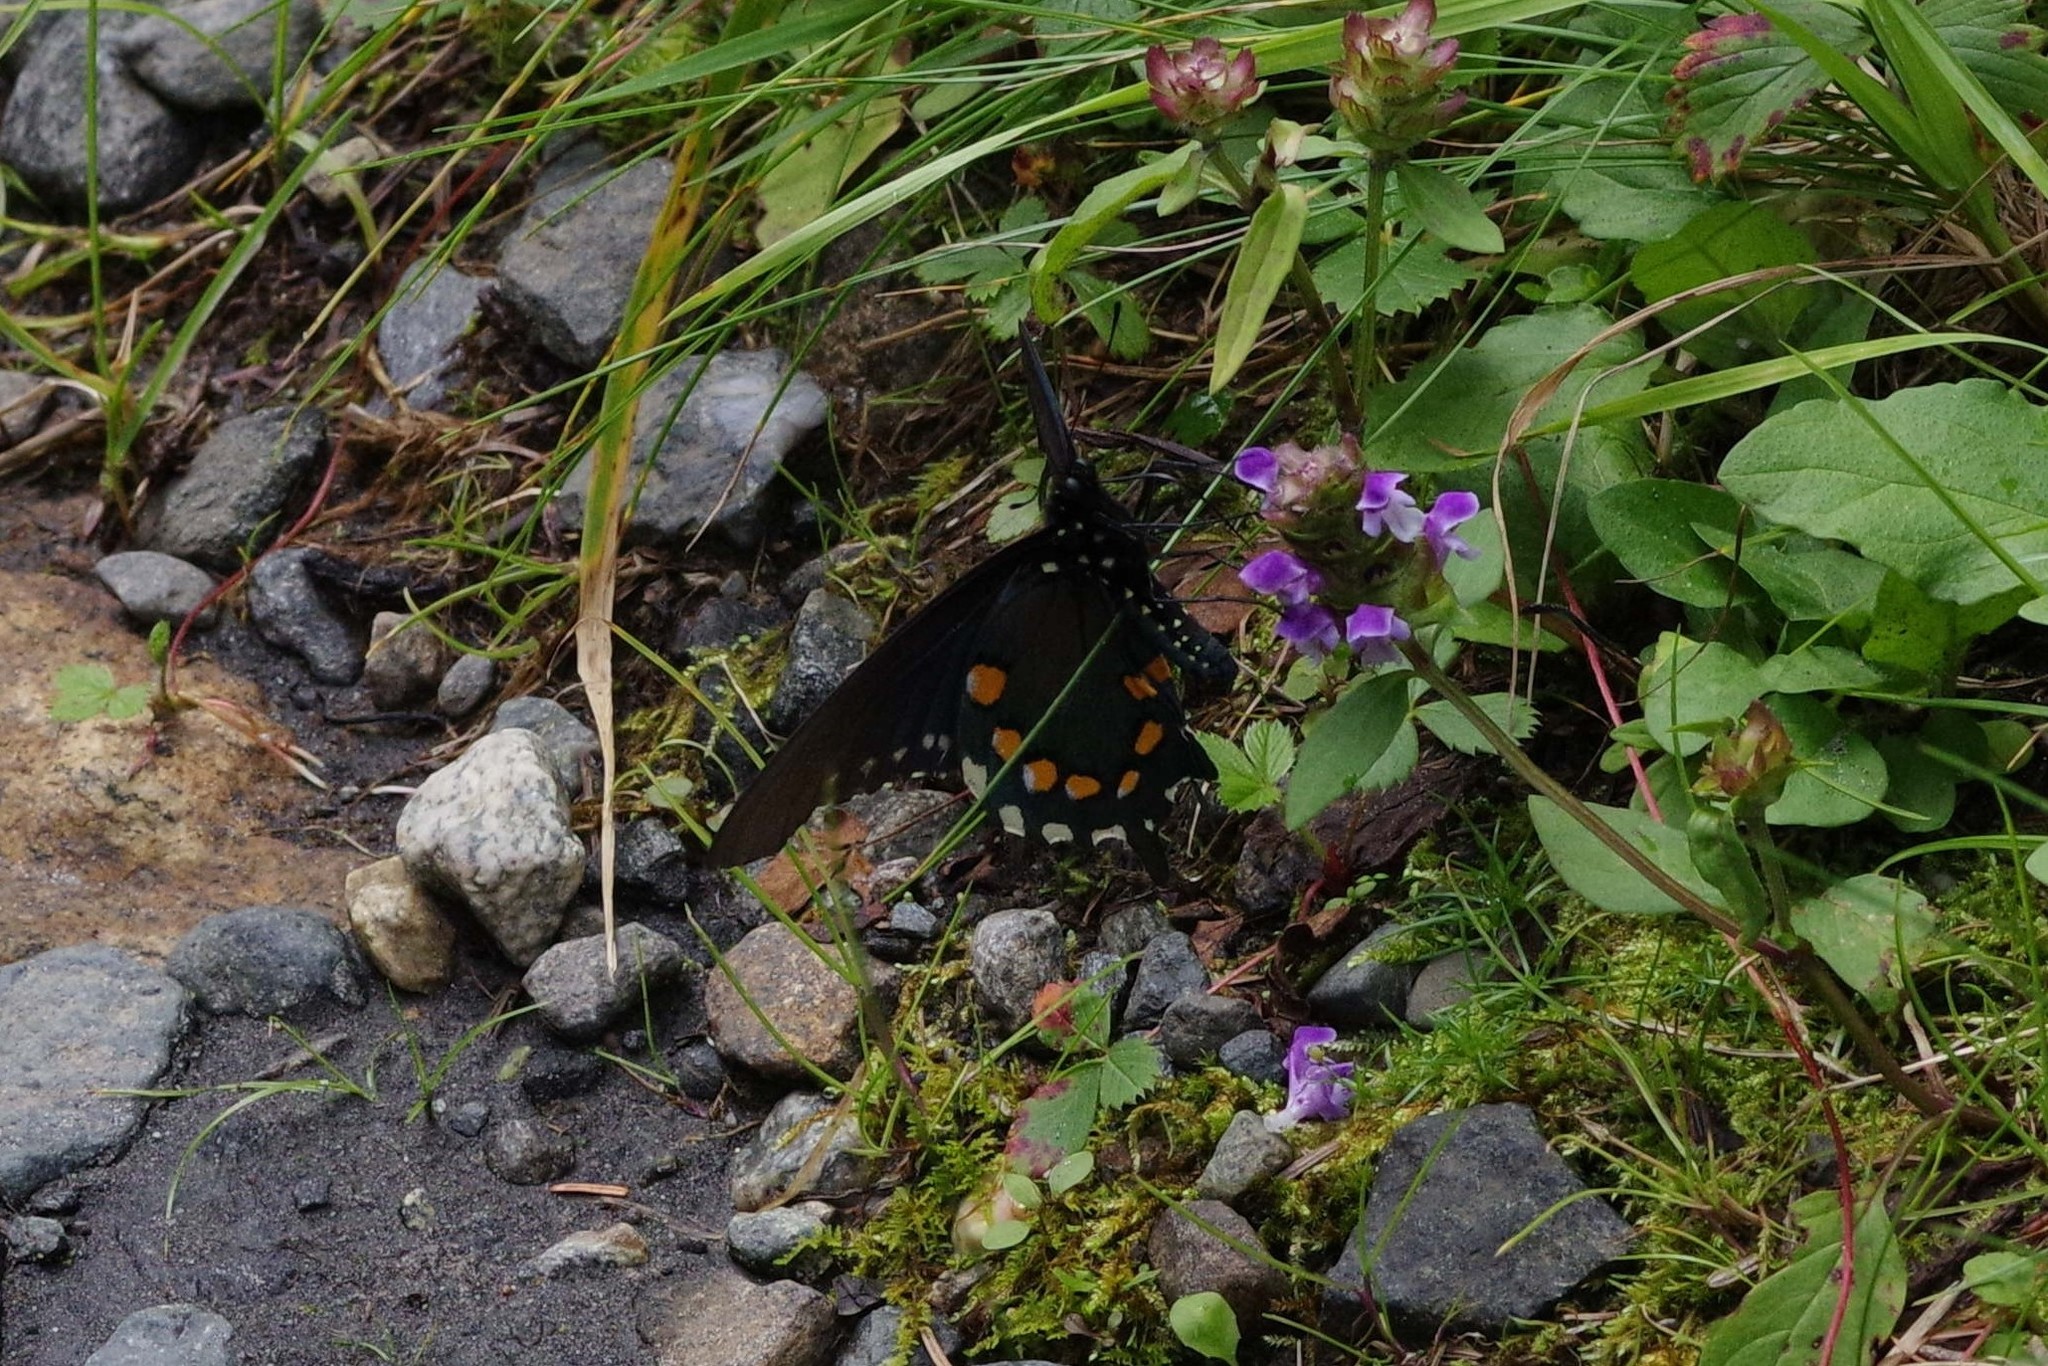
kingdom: Animalia
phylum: Arthropoda
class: Insecta
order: Lepidoptera
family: Papilionidae
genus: Battus
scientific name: Battus philenor
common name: Pipevine swallowtail
